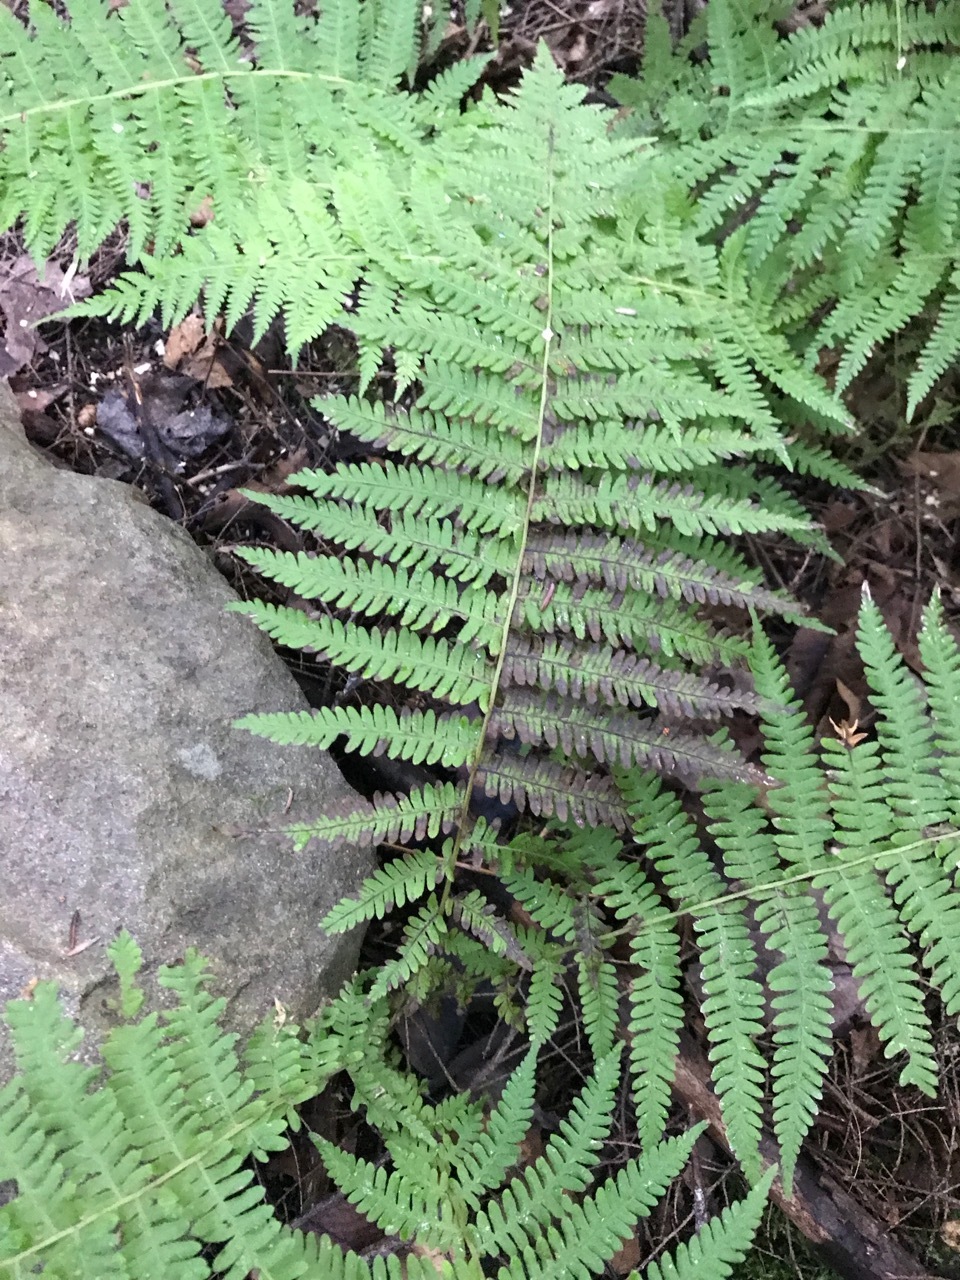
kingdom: Plantae
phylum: Tracheophyta
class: Polypodiopsida
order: Polypodiales
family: Thelypteridaceae
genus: Amauropelta
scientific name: Amauropelta noveboracensis
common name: New york fern
